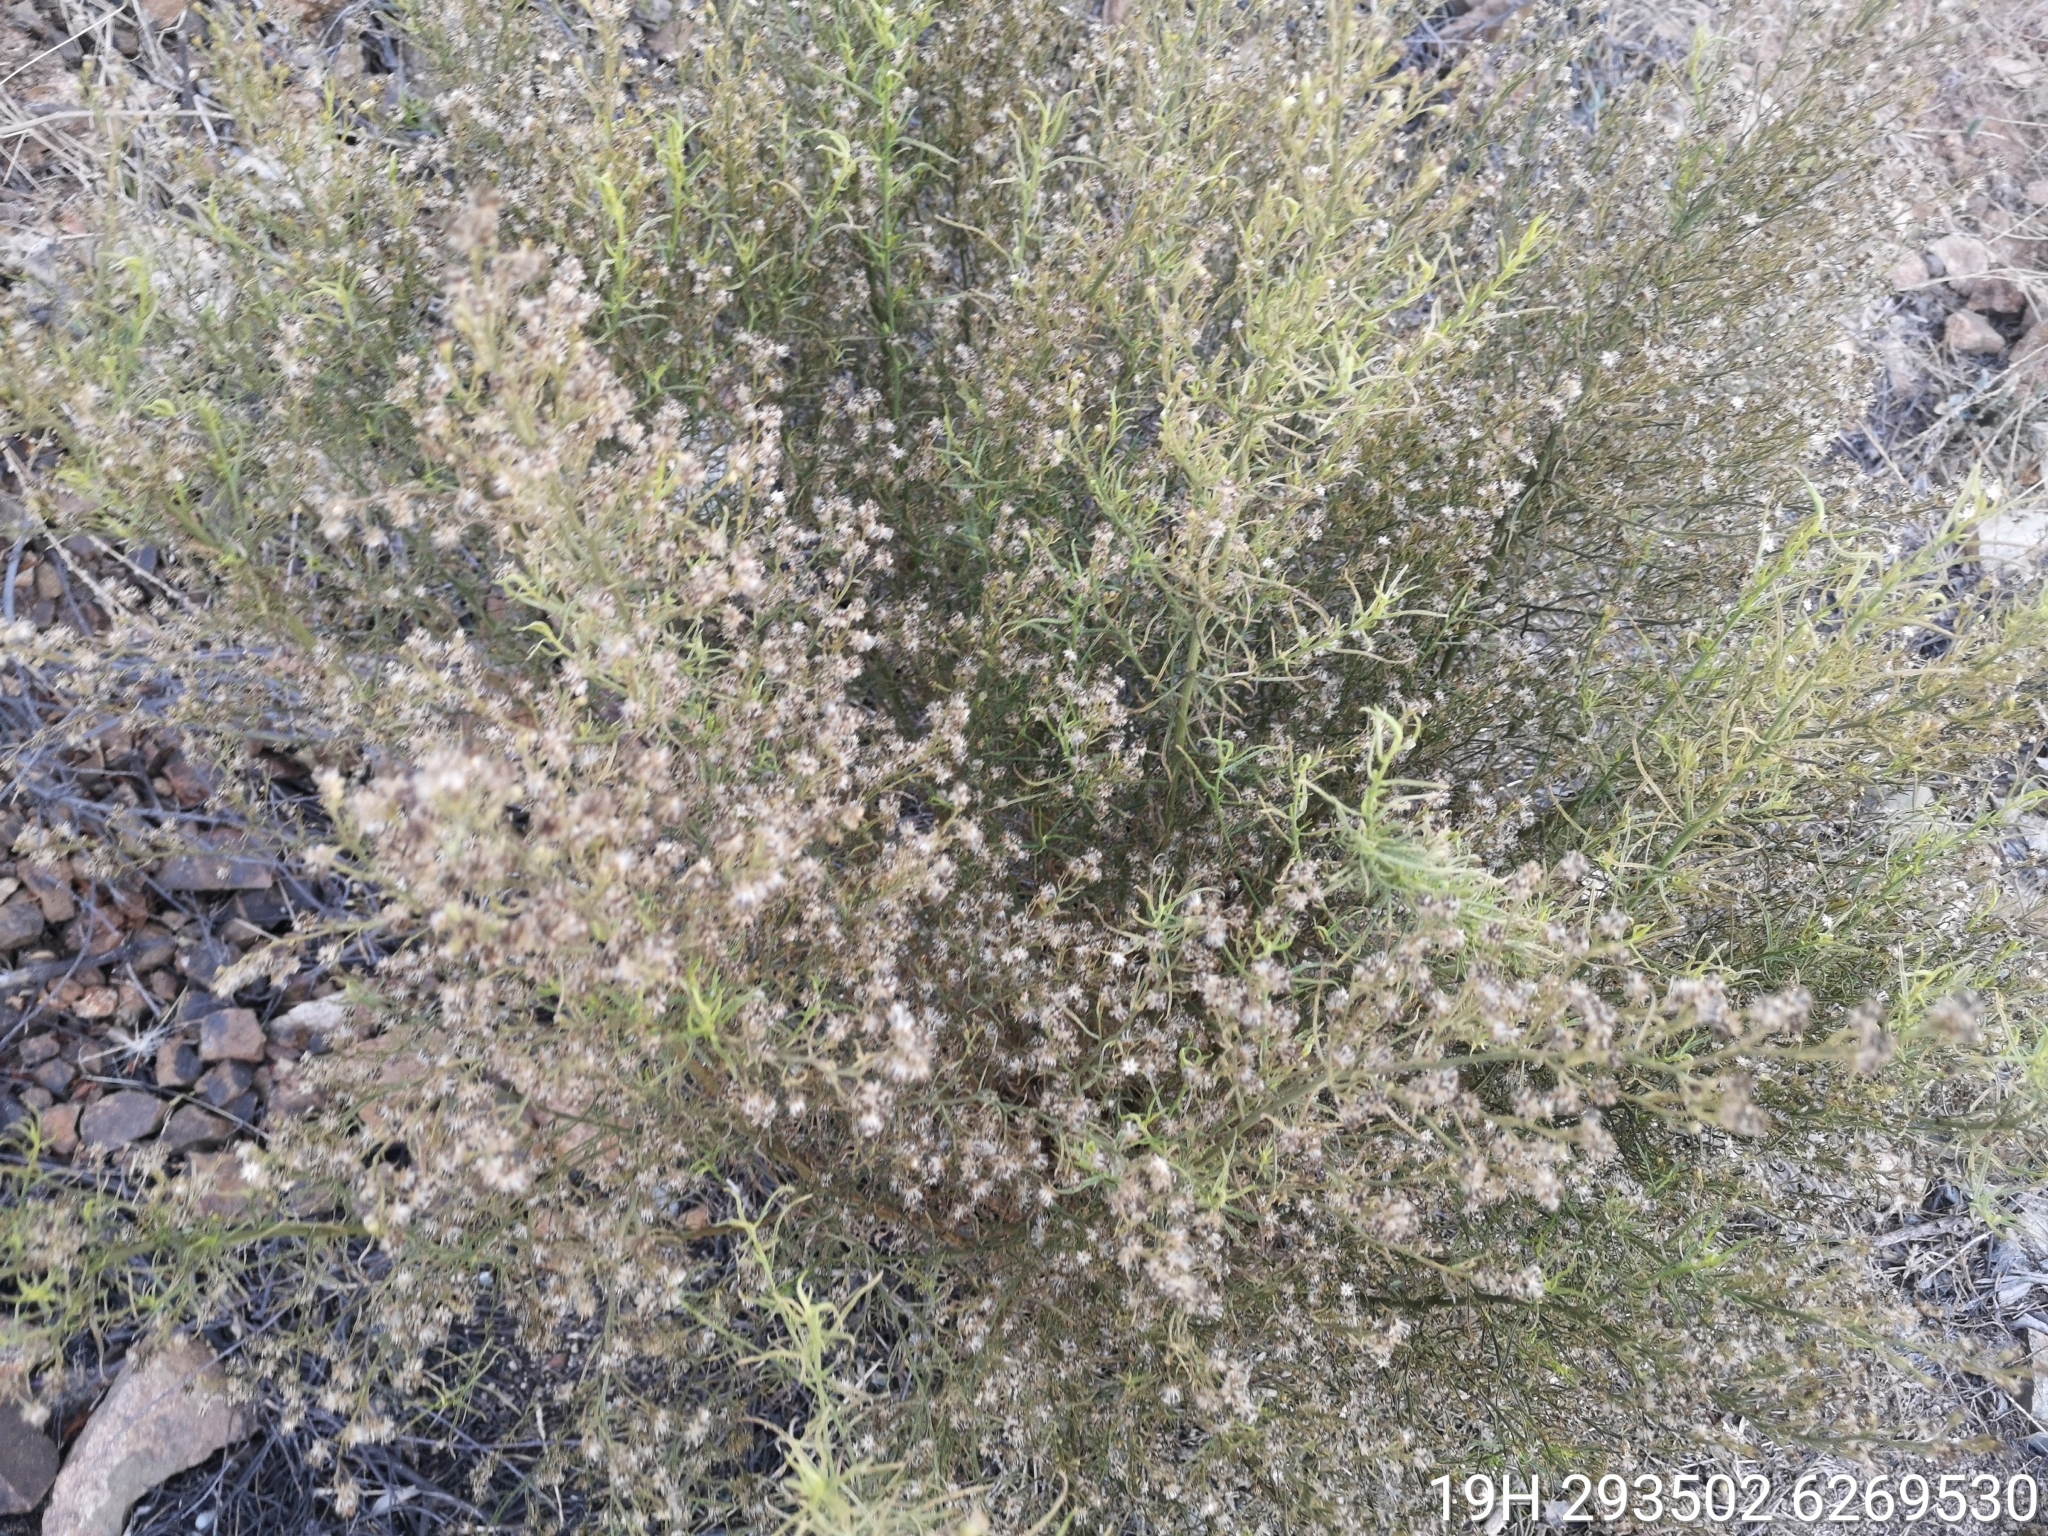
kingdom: Plantae
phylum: Tracheophyta
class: Magnoliopsida
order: Asterales
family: Asteraceae
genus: Baccharis
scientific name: Baccharis linearis
